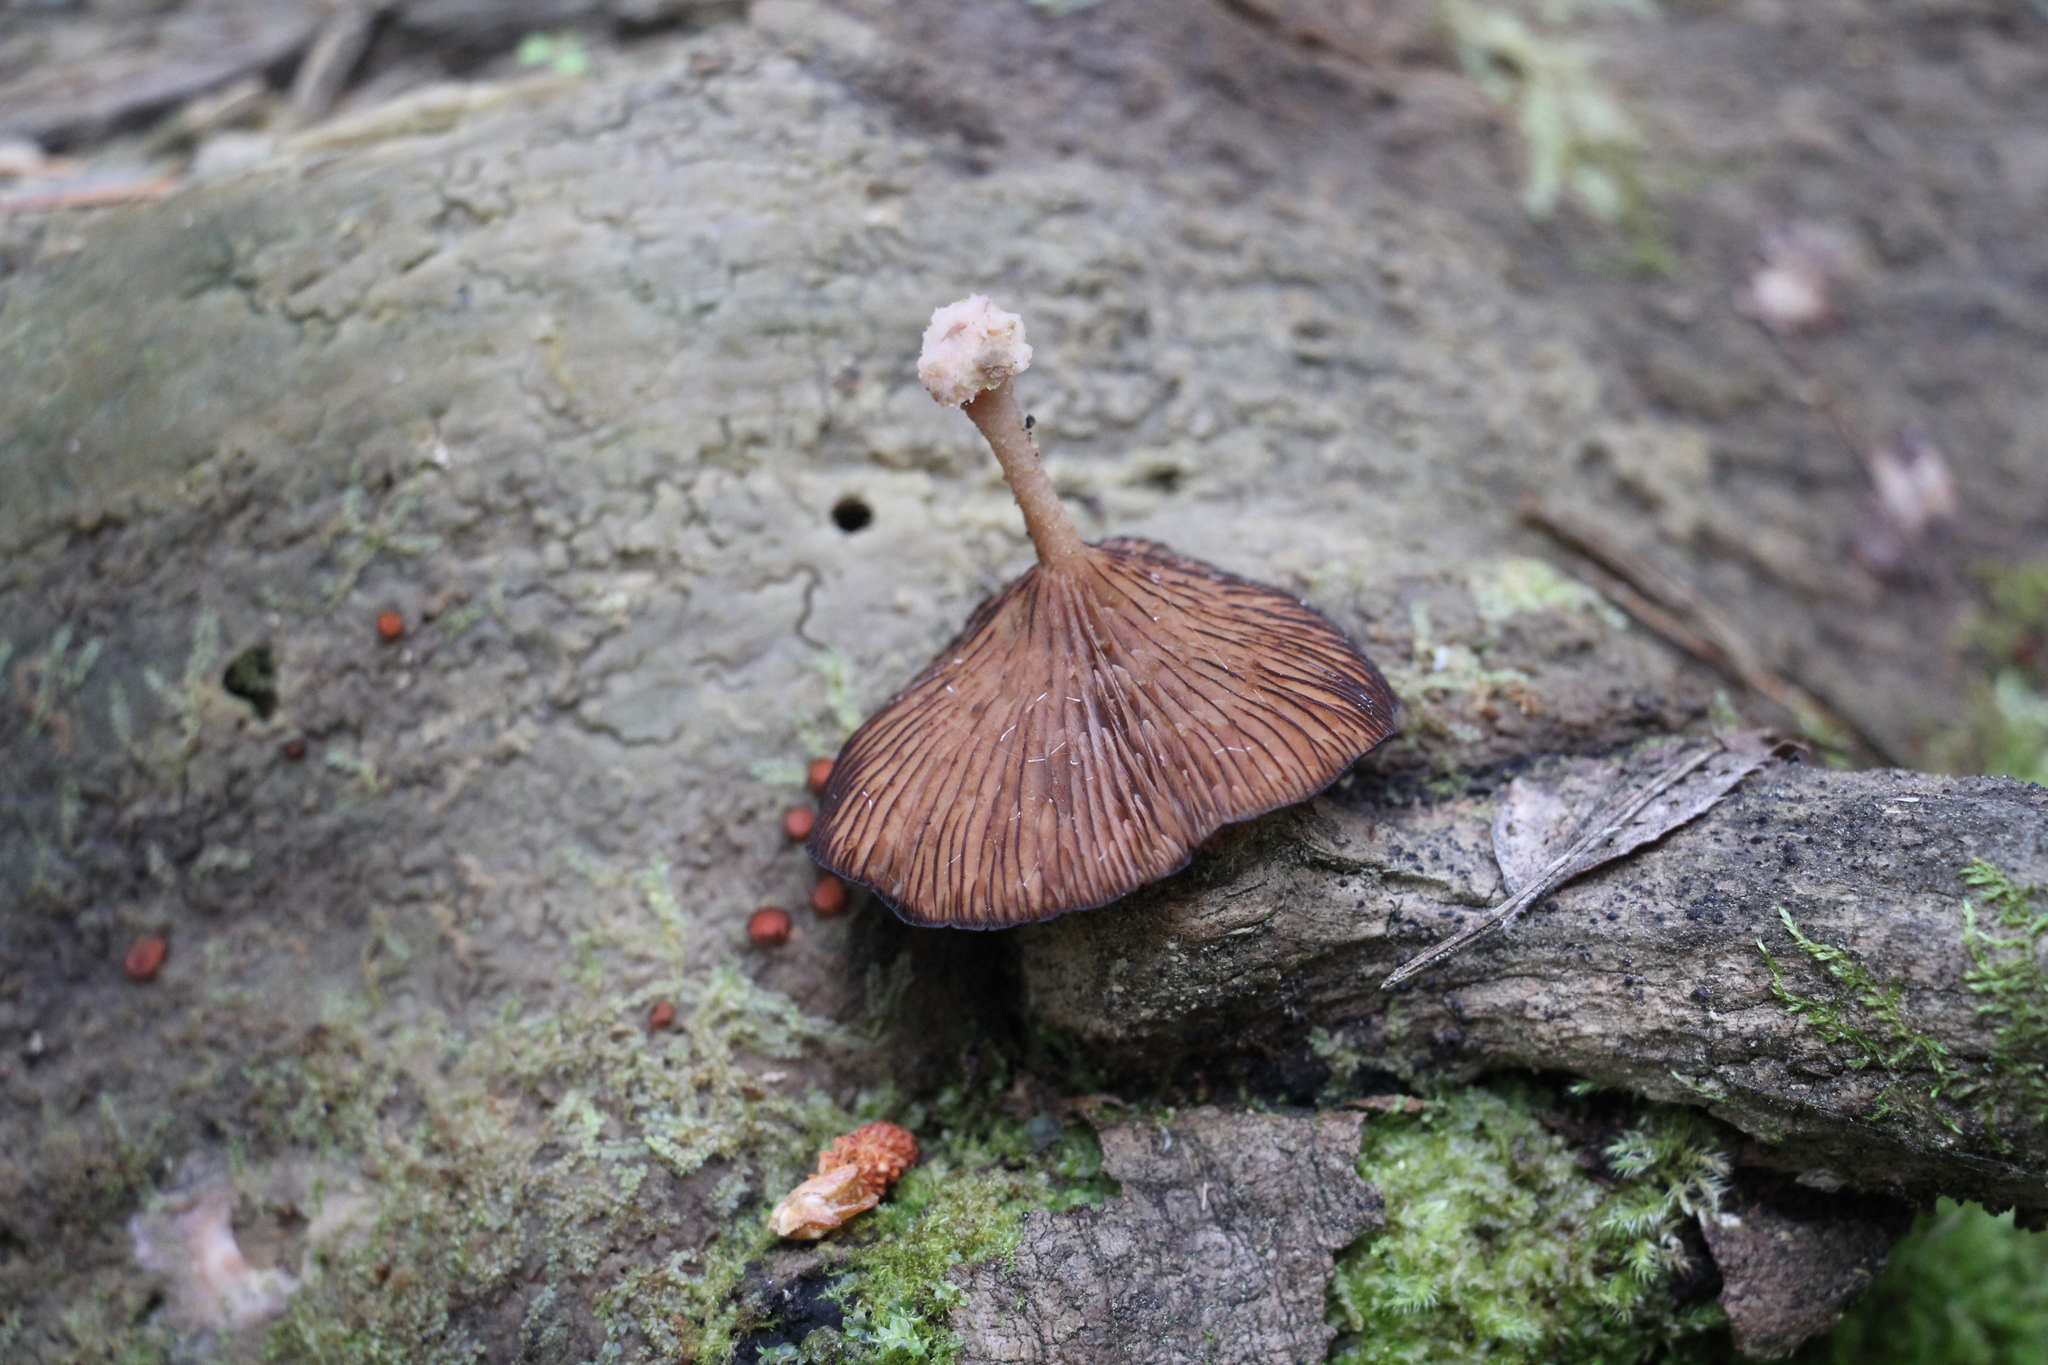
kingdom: Fungi
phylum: Basidiomycota
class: Agaricomycetes
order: Agaricales
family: Hygrophoraceae
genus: Arrhenia
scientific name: Arrhenia discorosea
